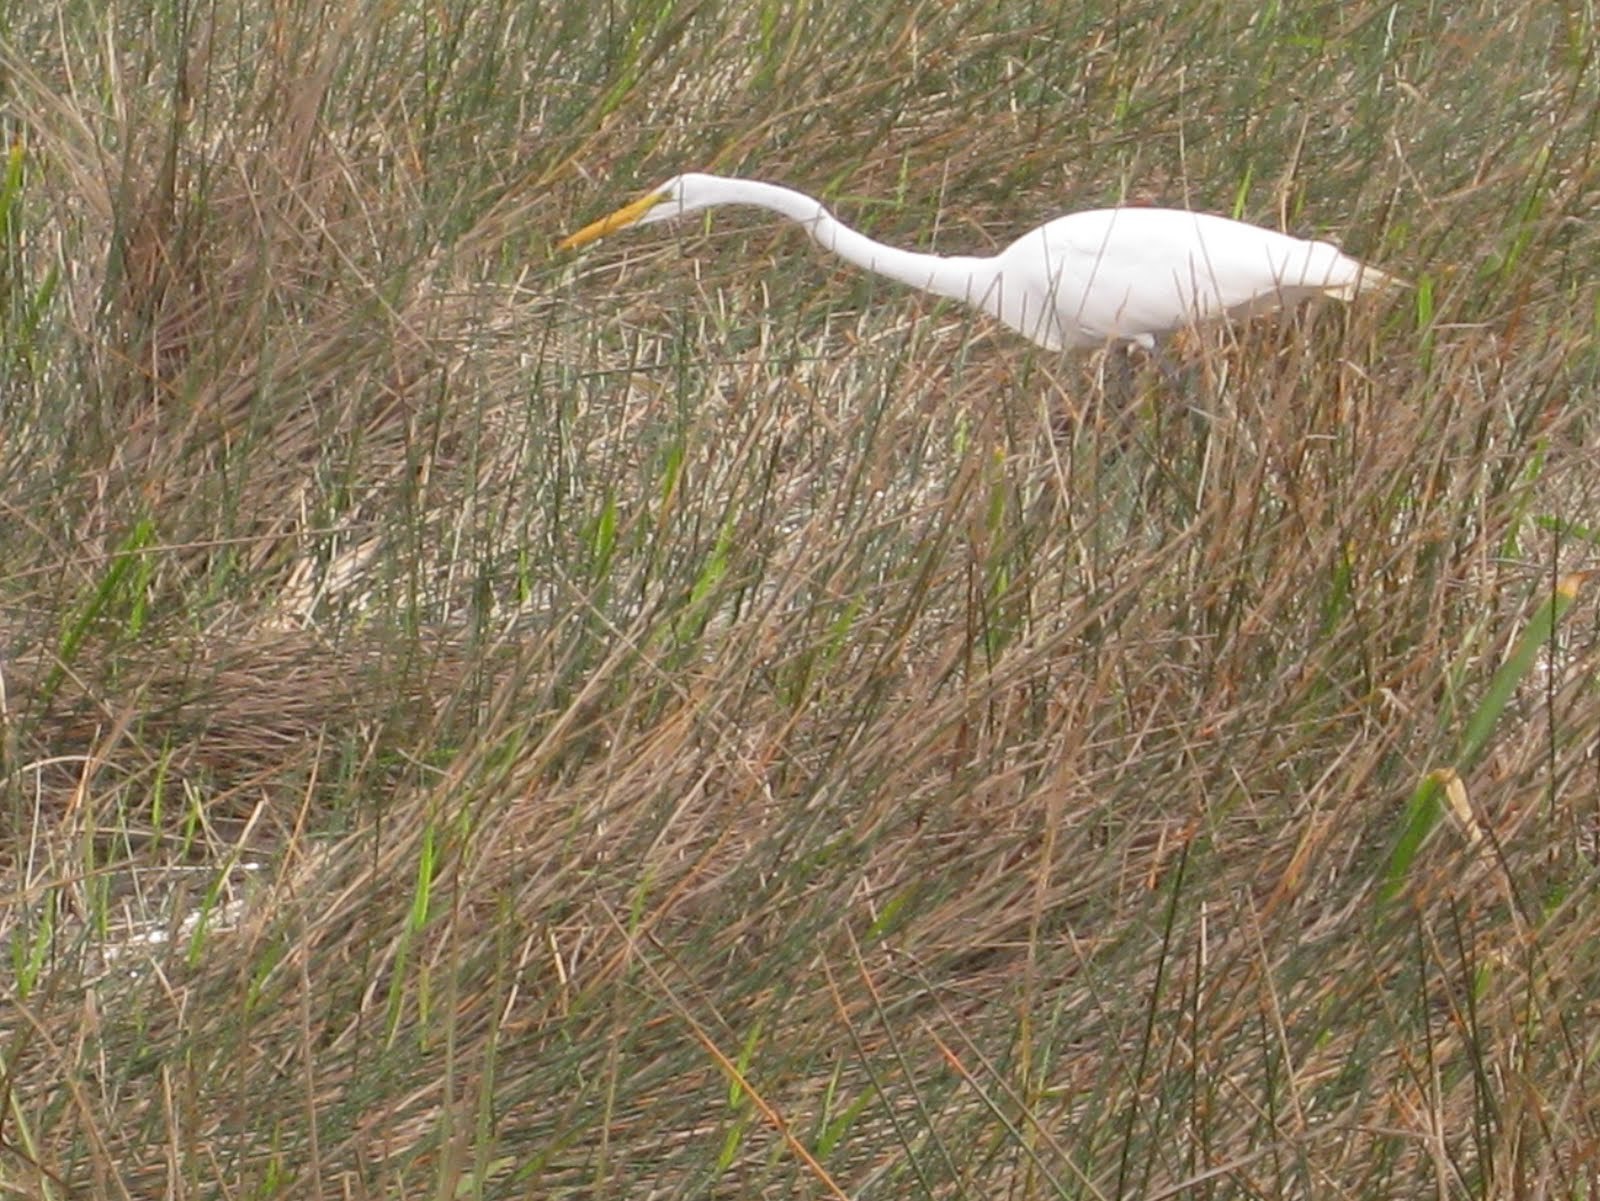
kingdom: Animalia
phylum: Chordata
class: Aves
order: Pelecaniformes
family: Ardeidae
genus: Ardea
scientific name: Ardea alba
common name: Great egret
